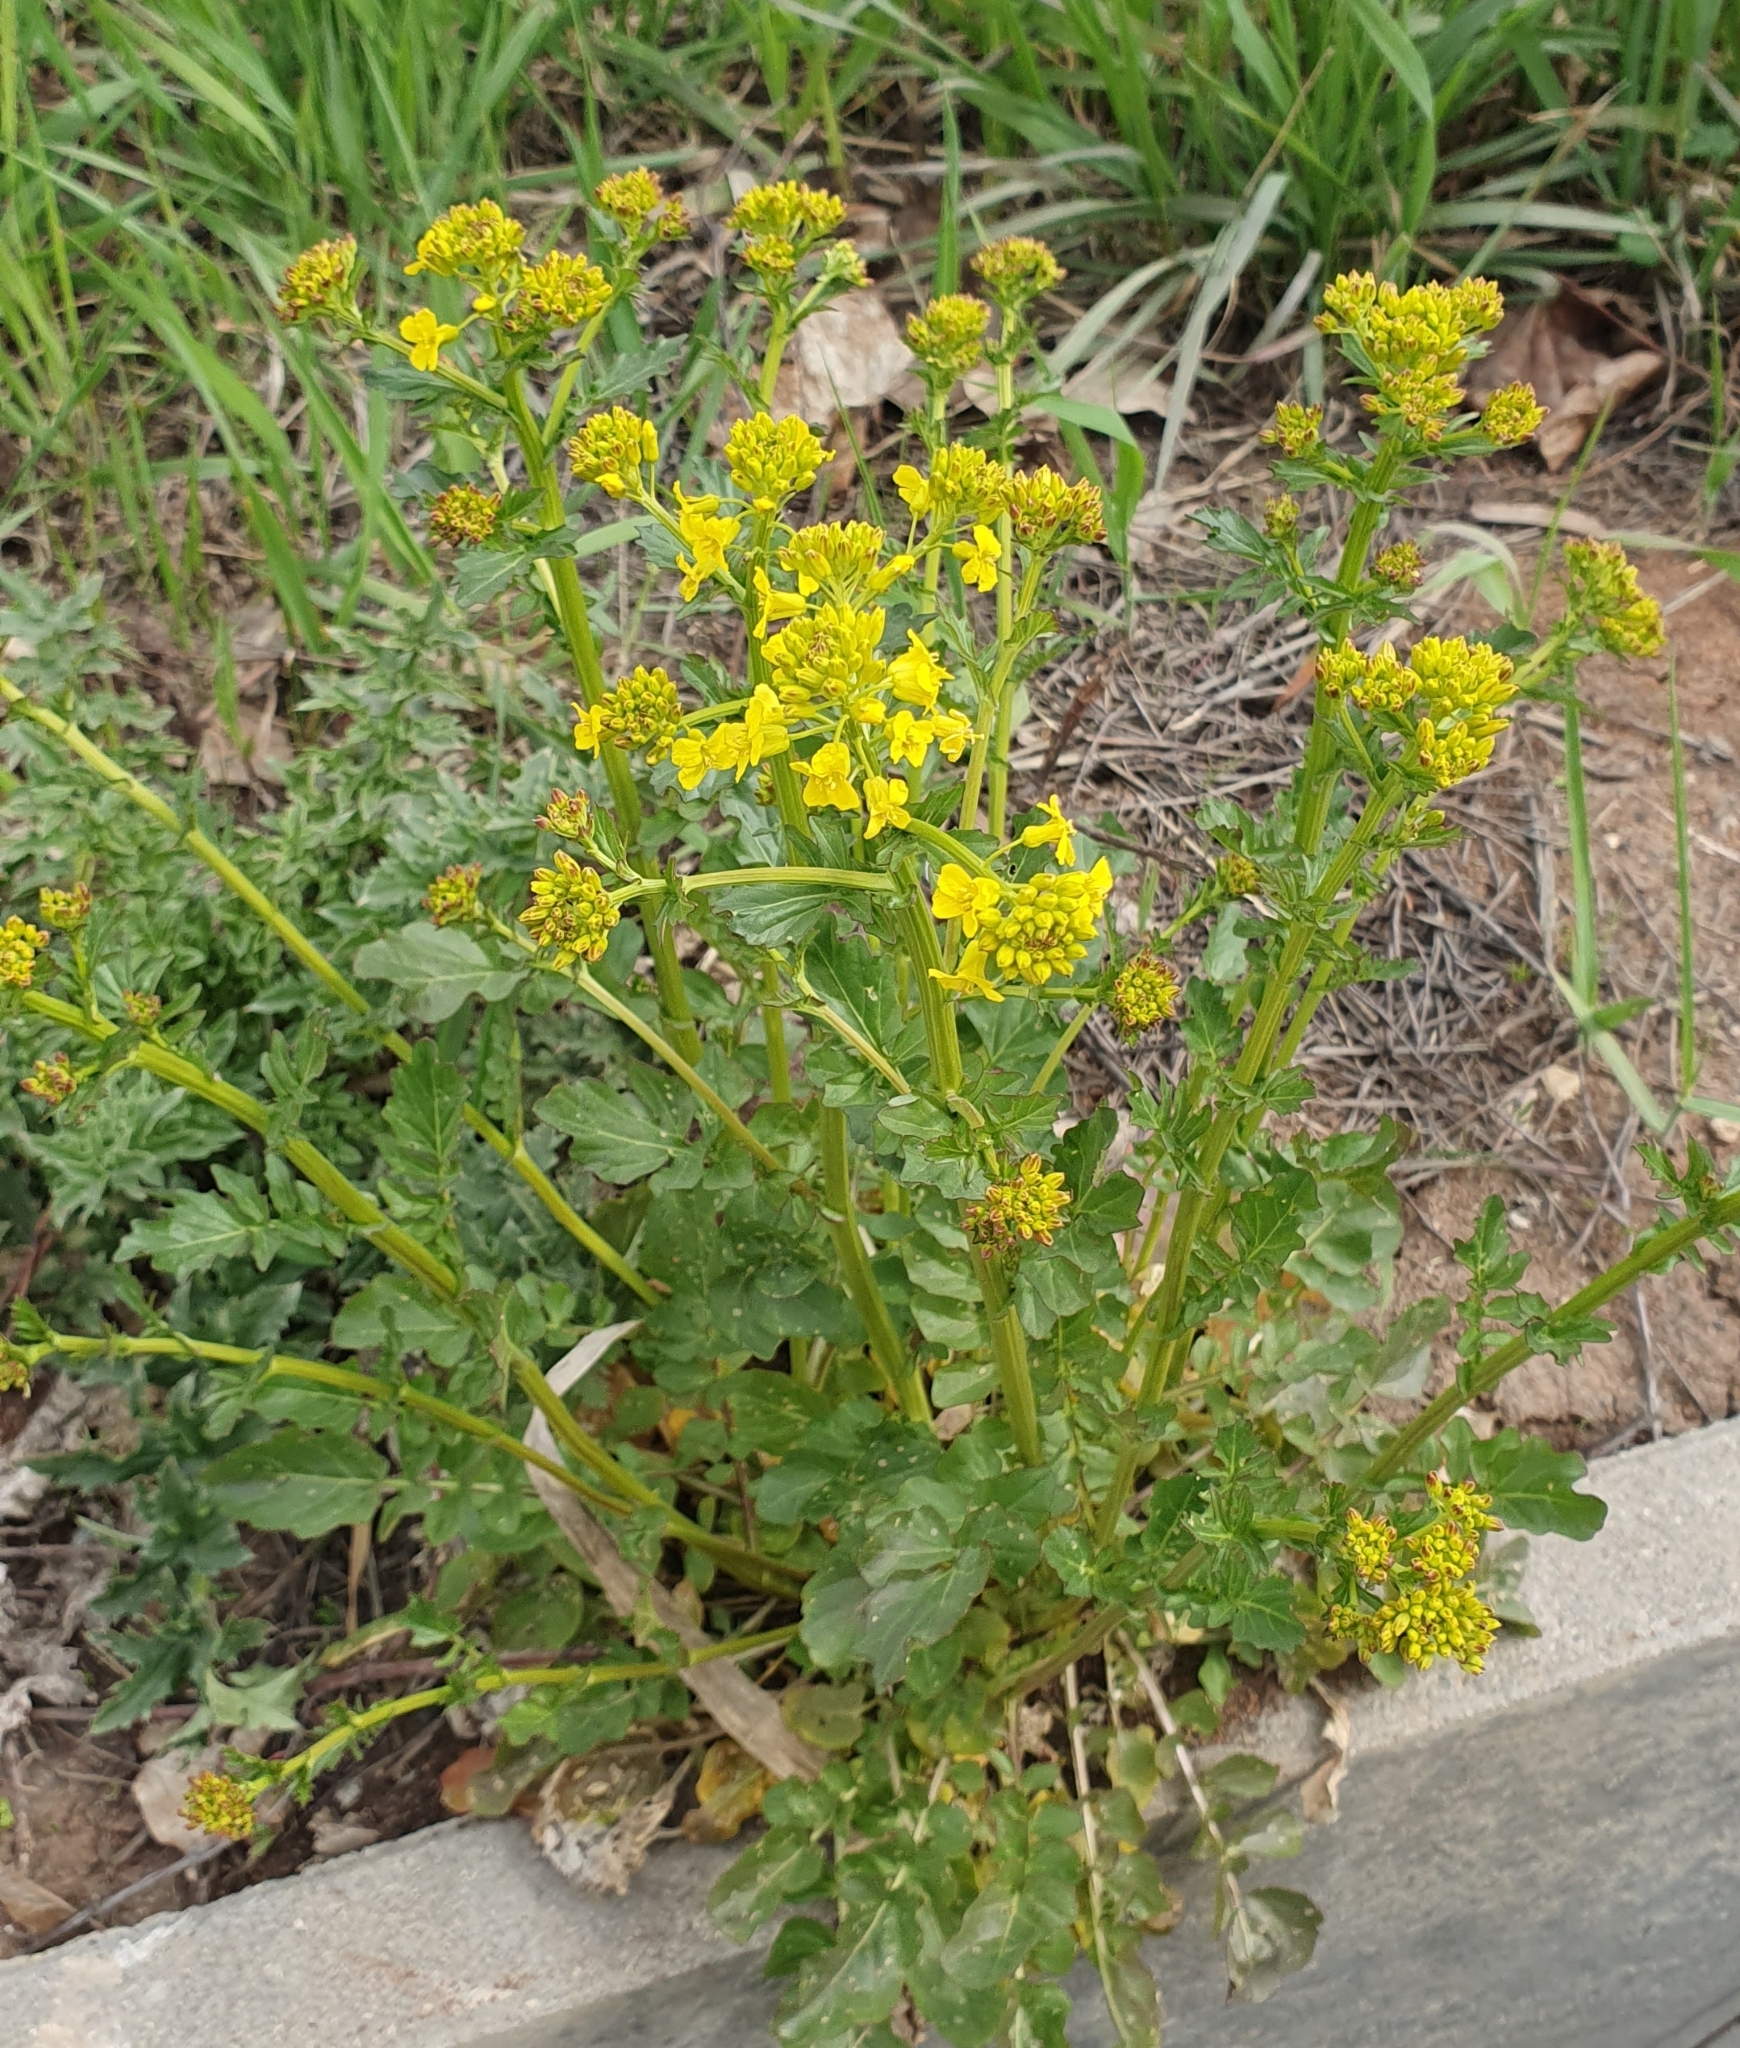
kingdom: Plantae
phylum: Tracheophyta
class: Magnoliopsida
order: Brassicales
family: Brassicaceae
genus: Barbarea
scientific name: Barbarea vulgaris
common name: Cressy-greens
